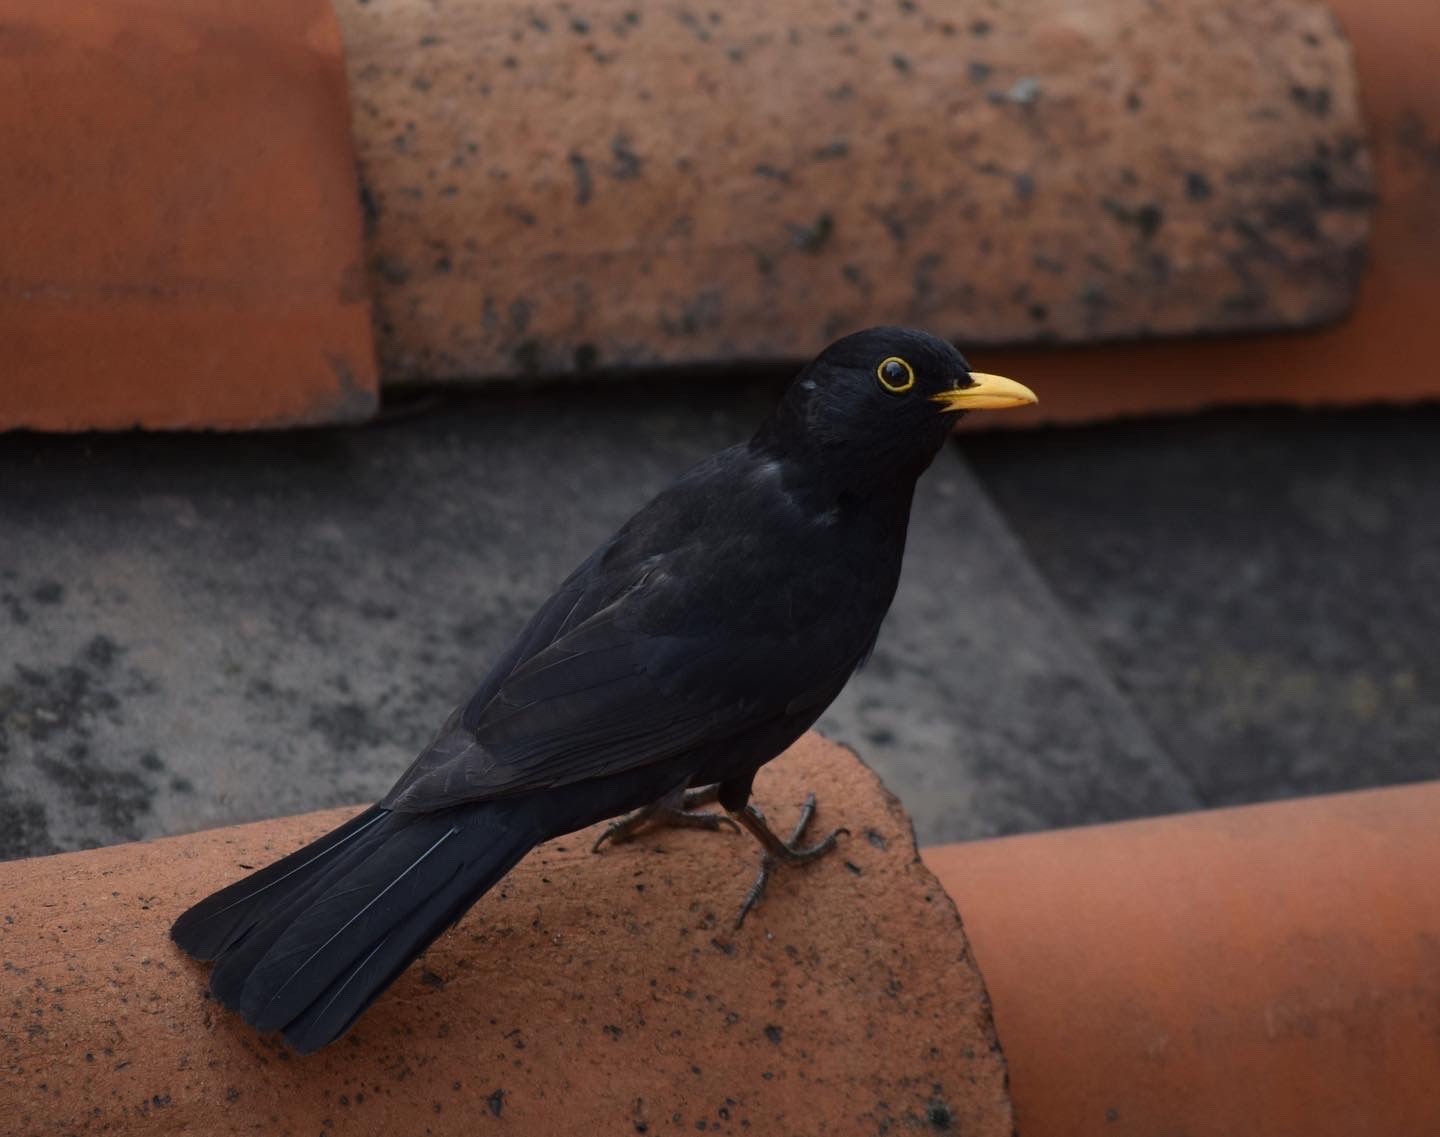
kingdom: Animalia
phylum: Chordata
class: Aves
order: Passeriformes
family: Turdidae
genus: Turdus
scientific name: Turdus merula
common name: Common blackbird
